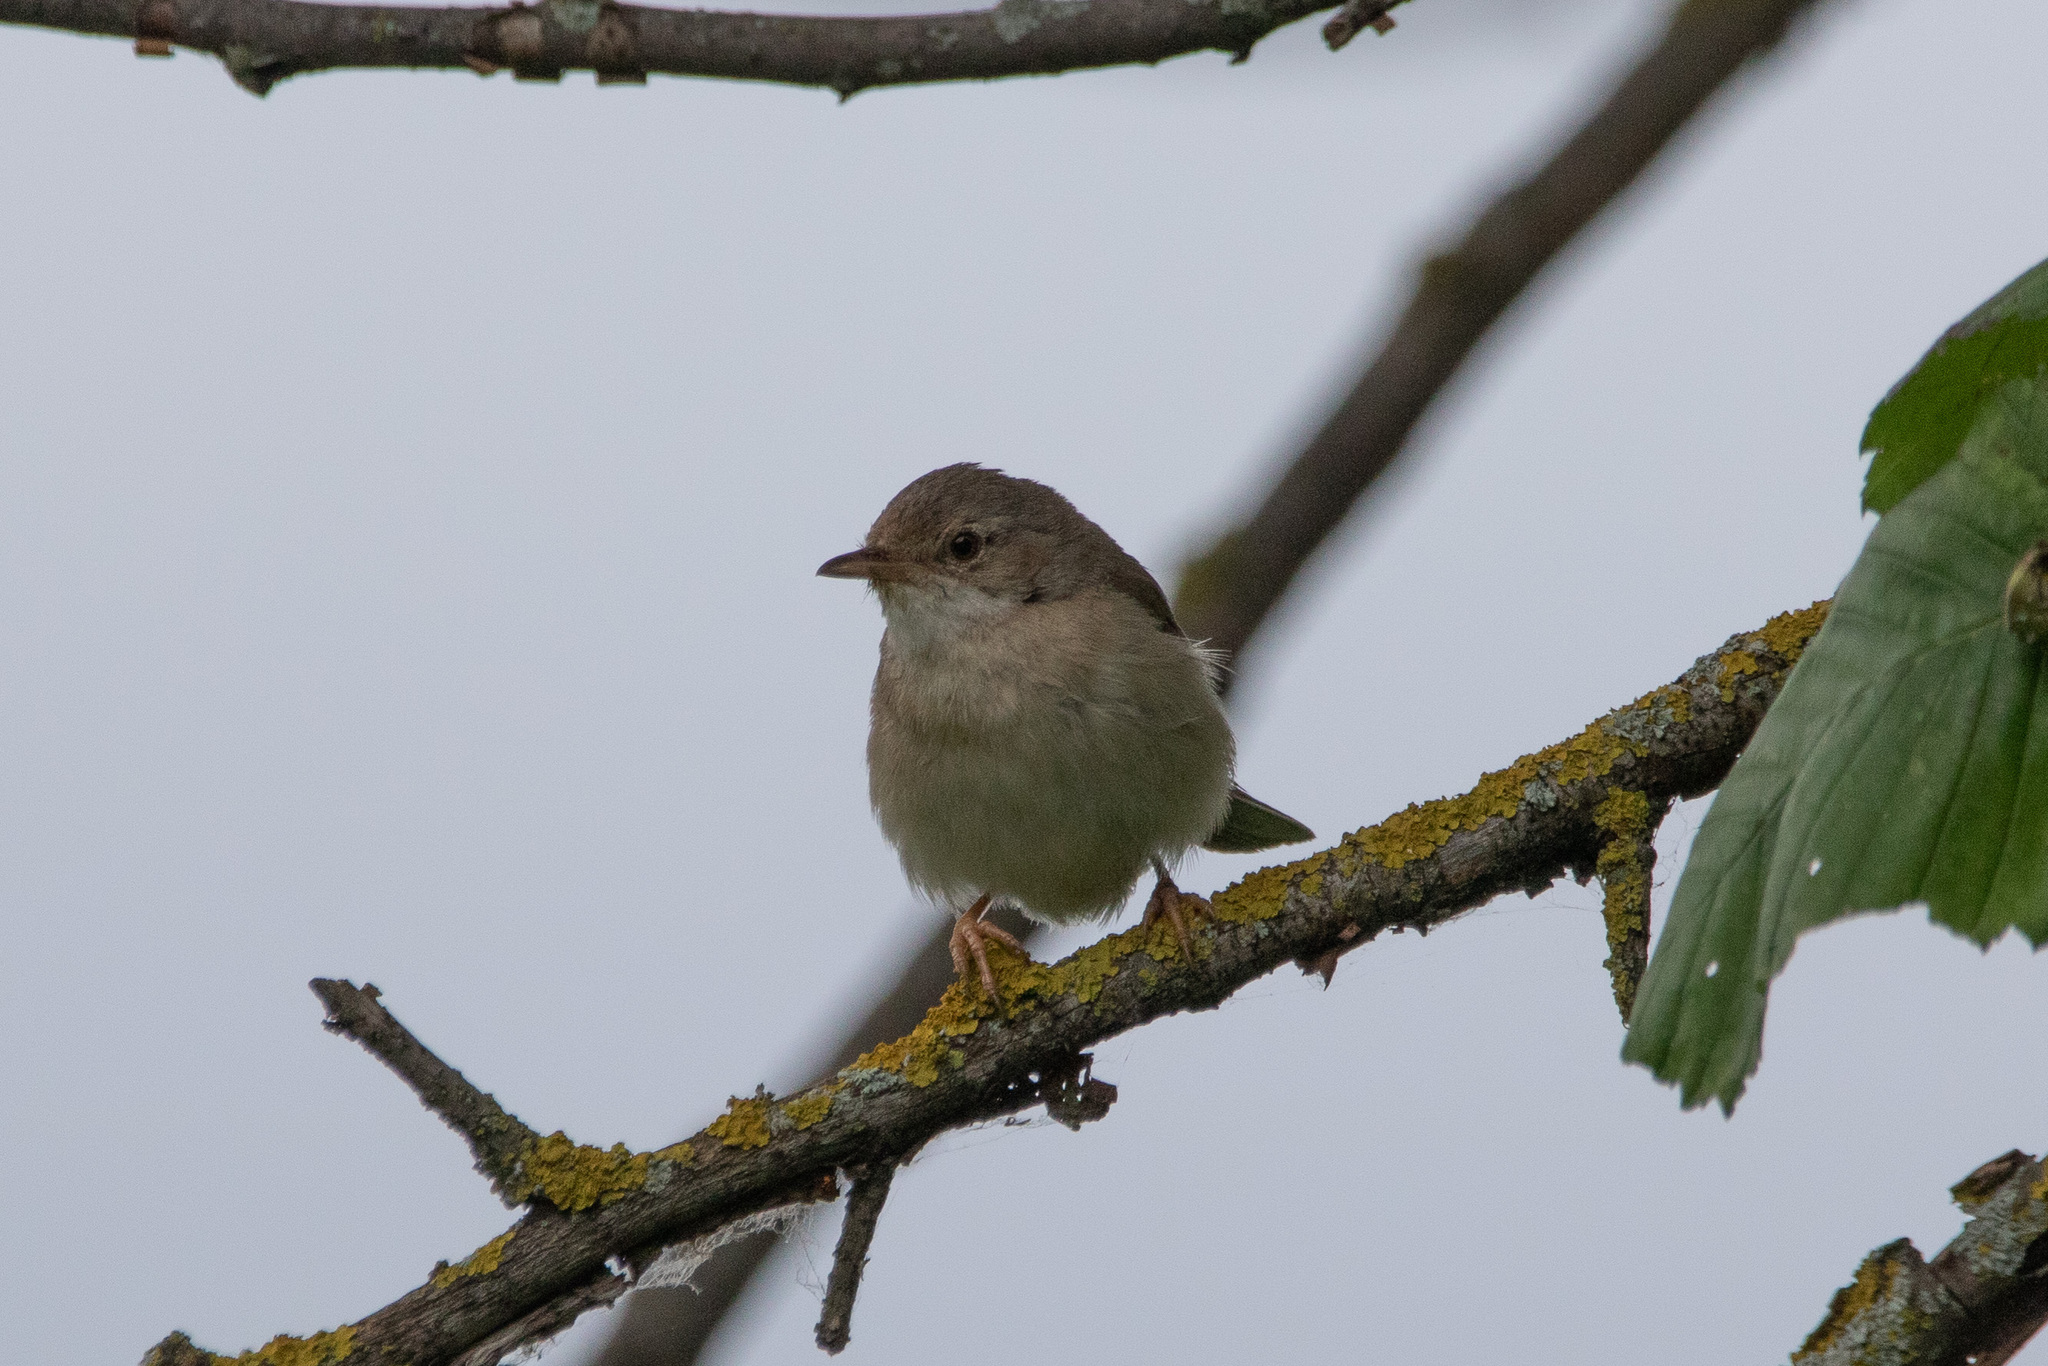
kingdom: Animalia
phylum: Chordata
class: Aves
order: Passeriformes
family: Sylviidae
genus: Sylvia
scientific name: Sylvia communis
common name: Common whitethroat
